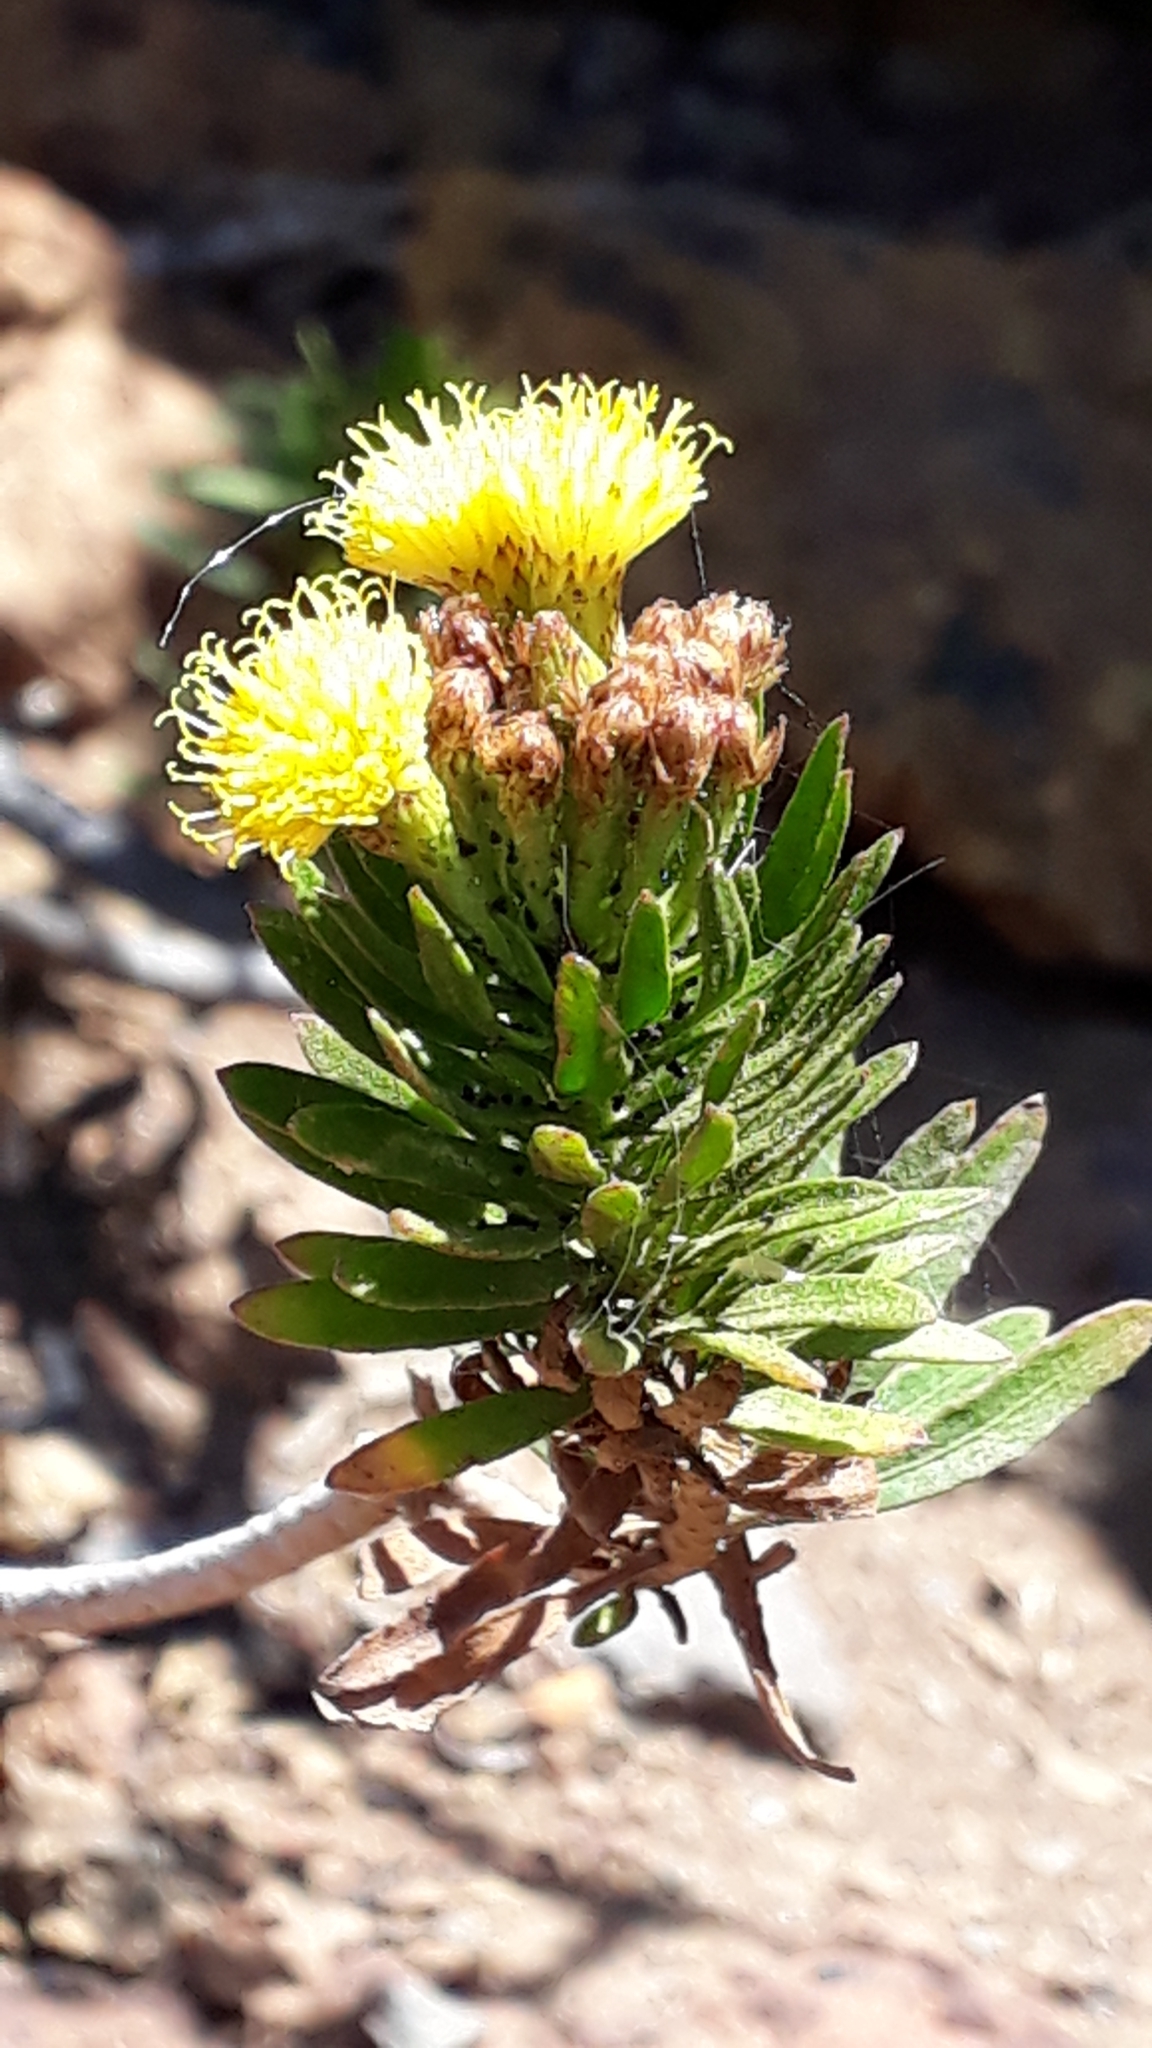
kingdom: Plantae
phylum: Tracheophyta
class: Magnoliopsida
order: Asterales
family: Asteraceae
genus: Allagopappus
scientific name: Allagopappus canariensis
